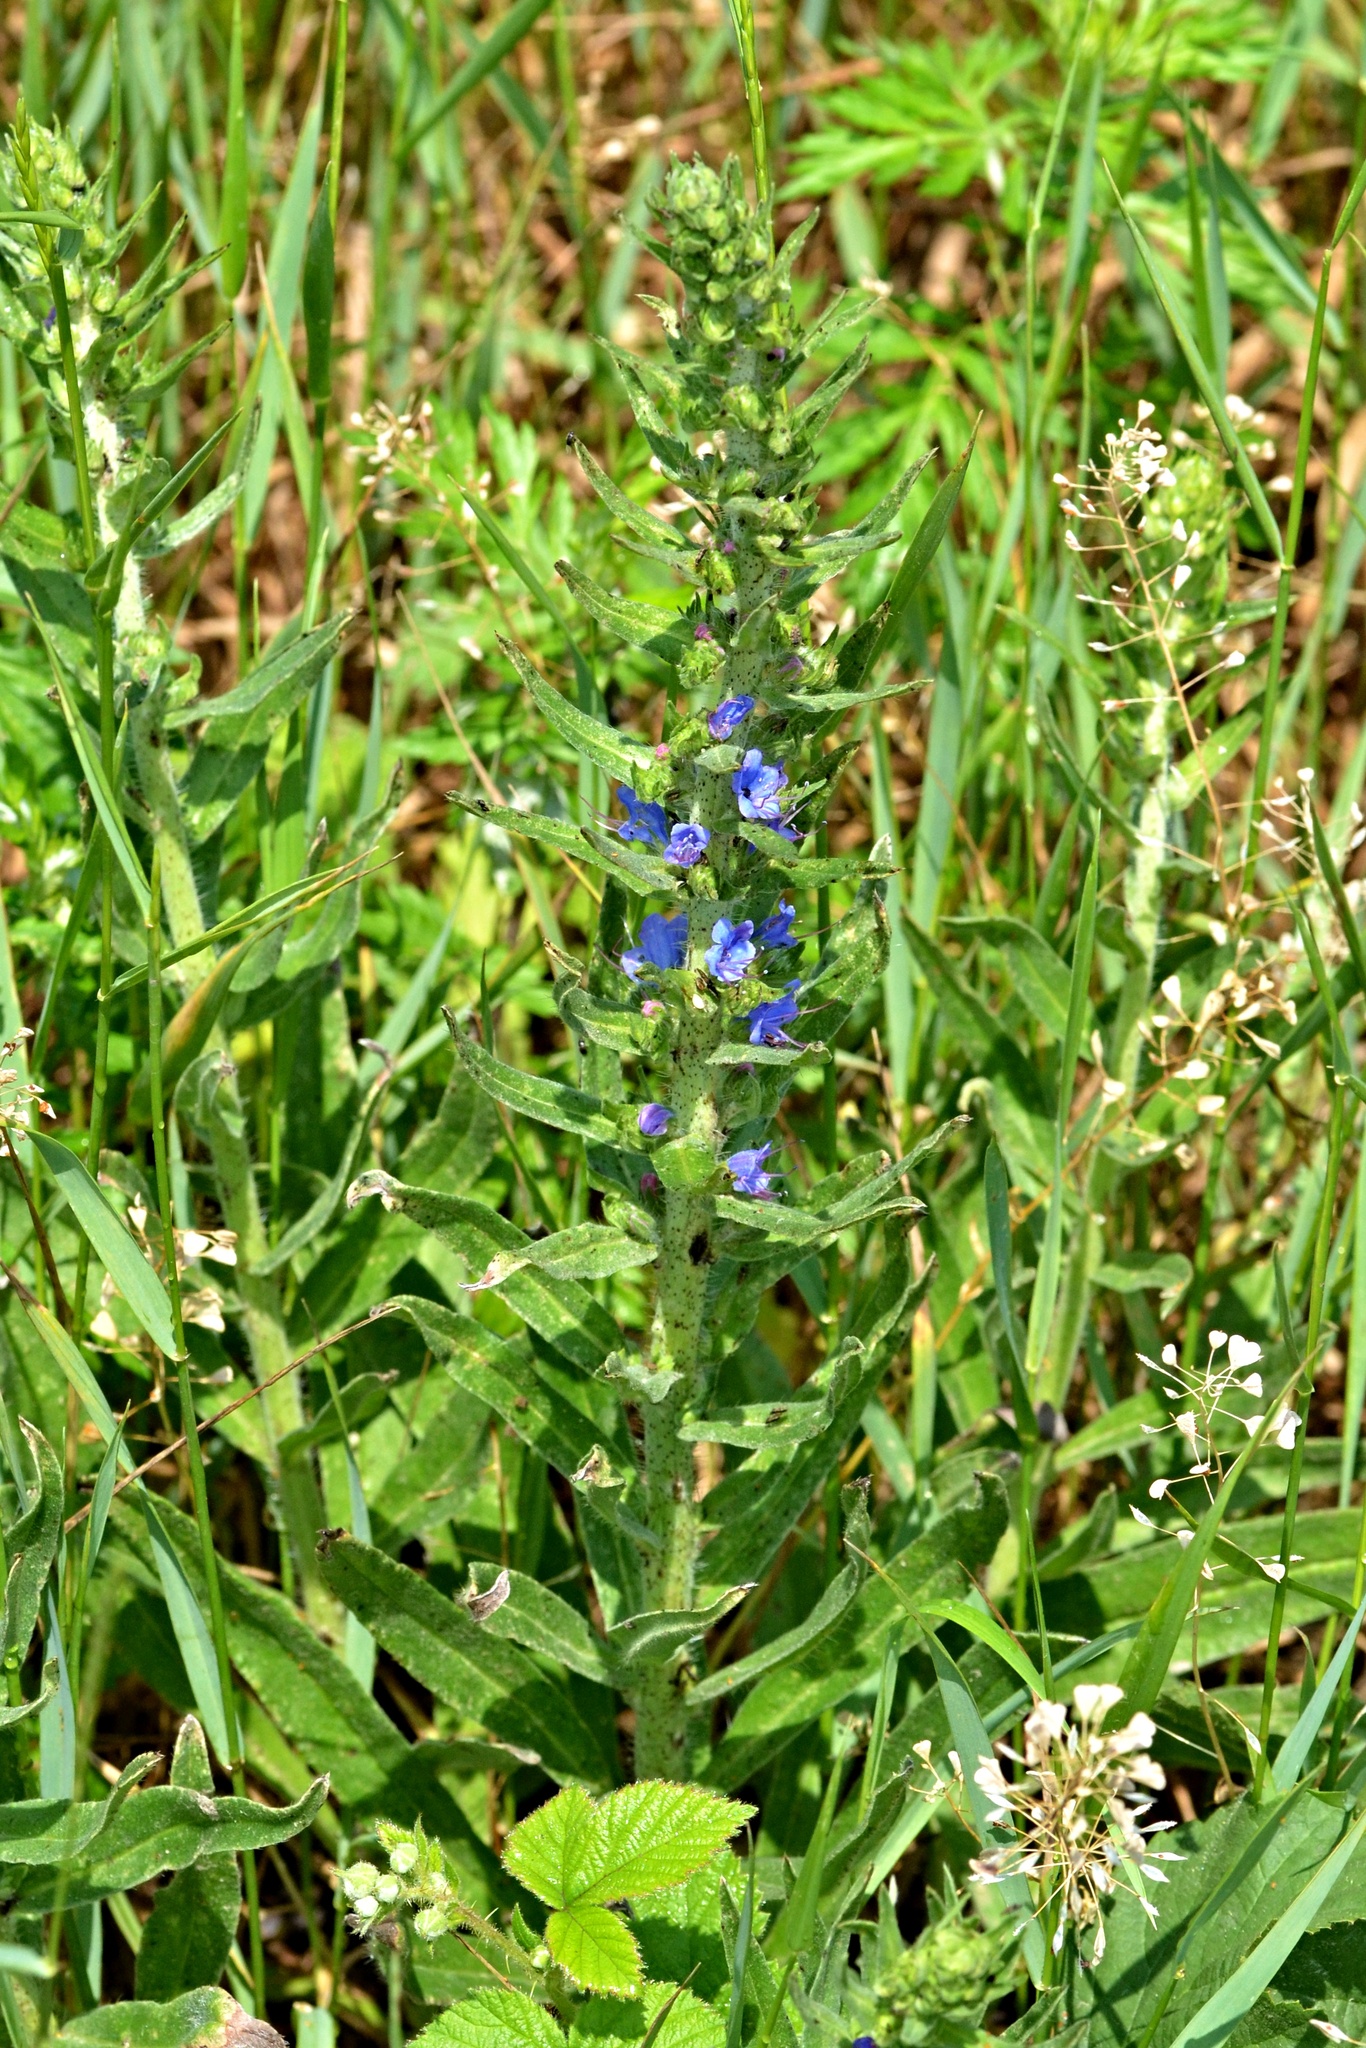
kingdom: Plantae
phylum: Tracheophyta
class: Magnoliopsida
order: Boraginales
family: Boraginaceae
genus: Echium
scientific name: Echium vulgare
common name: Common viper's bugloss
